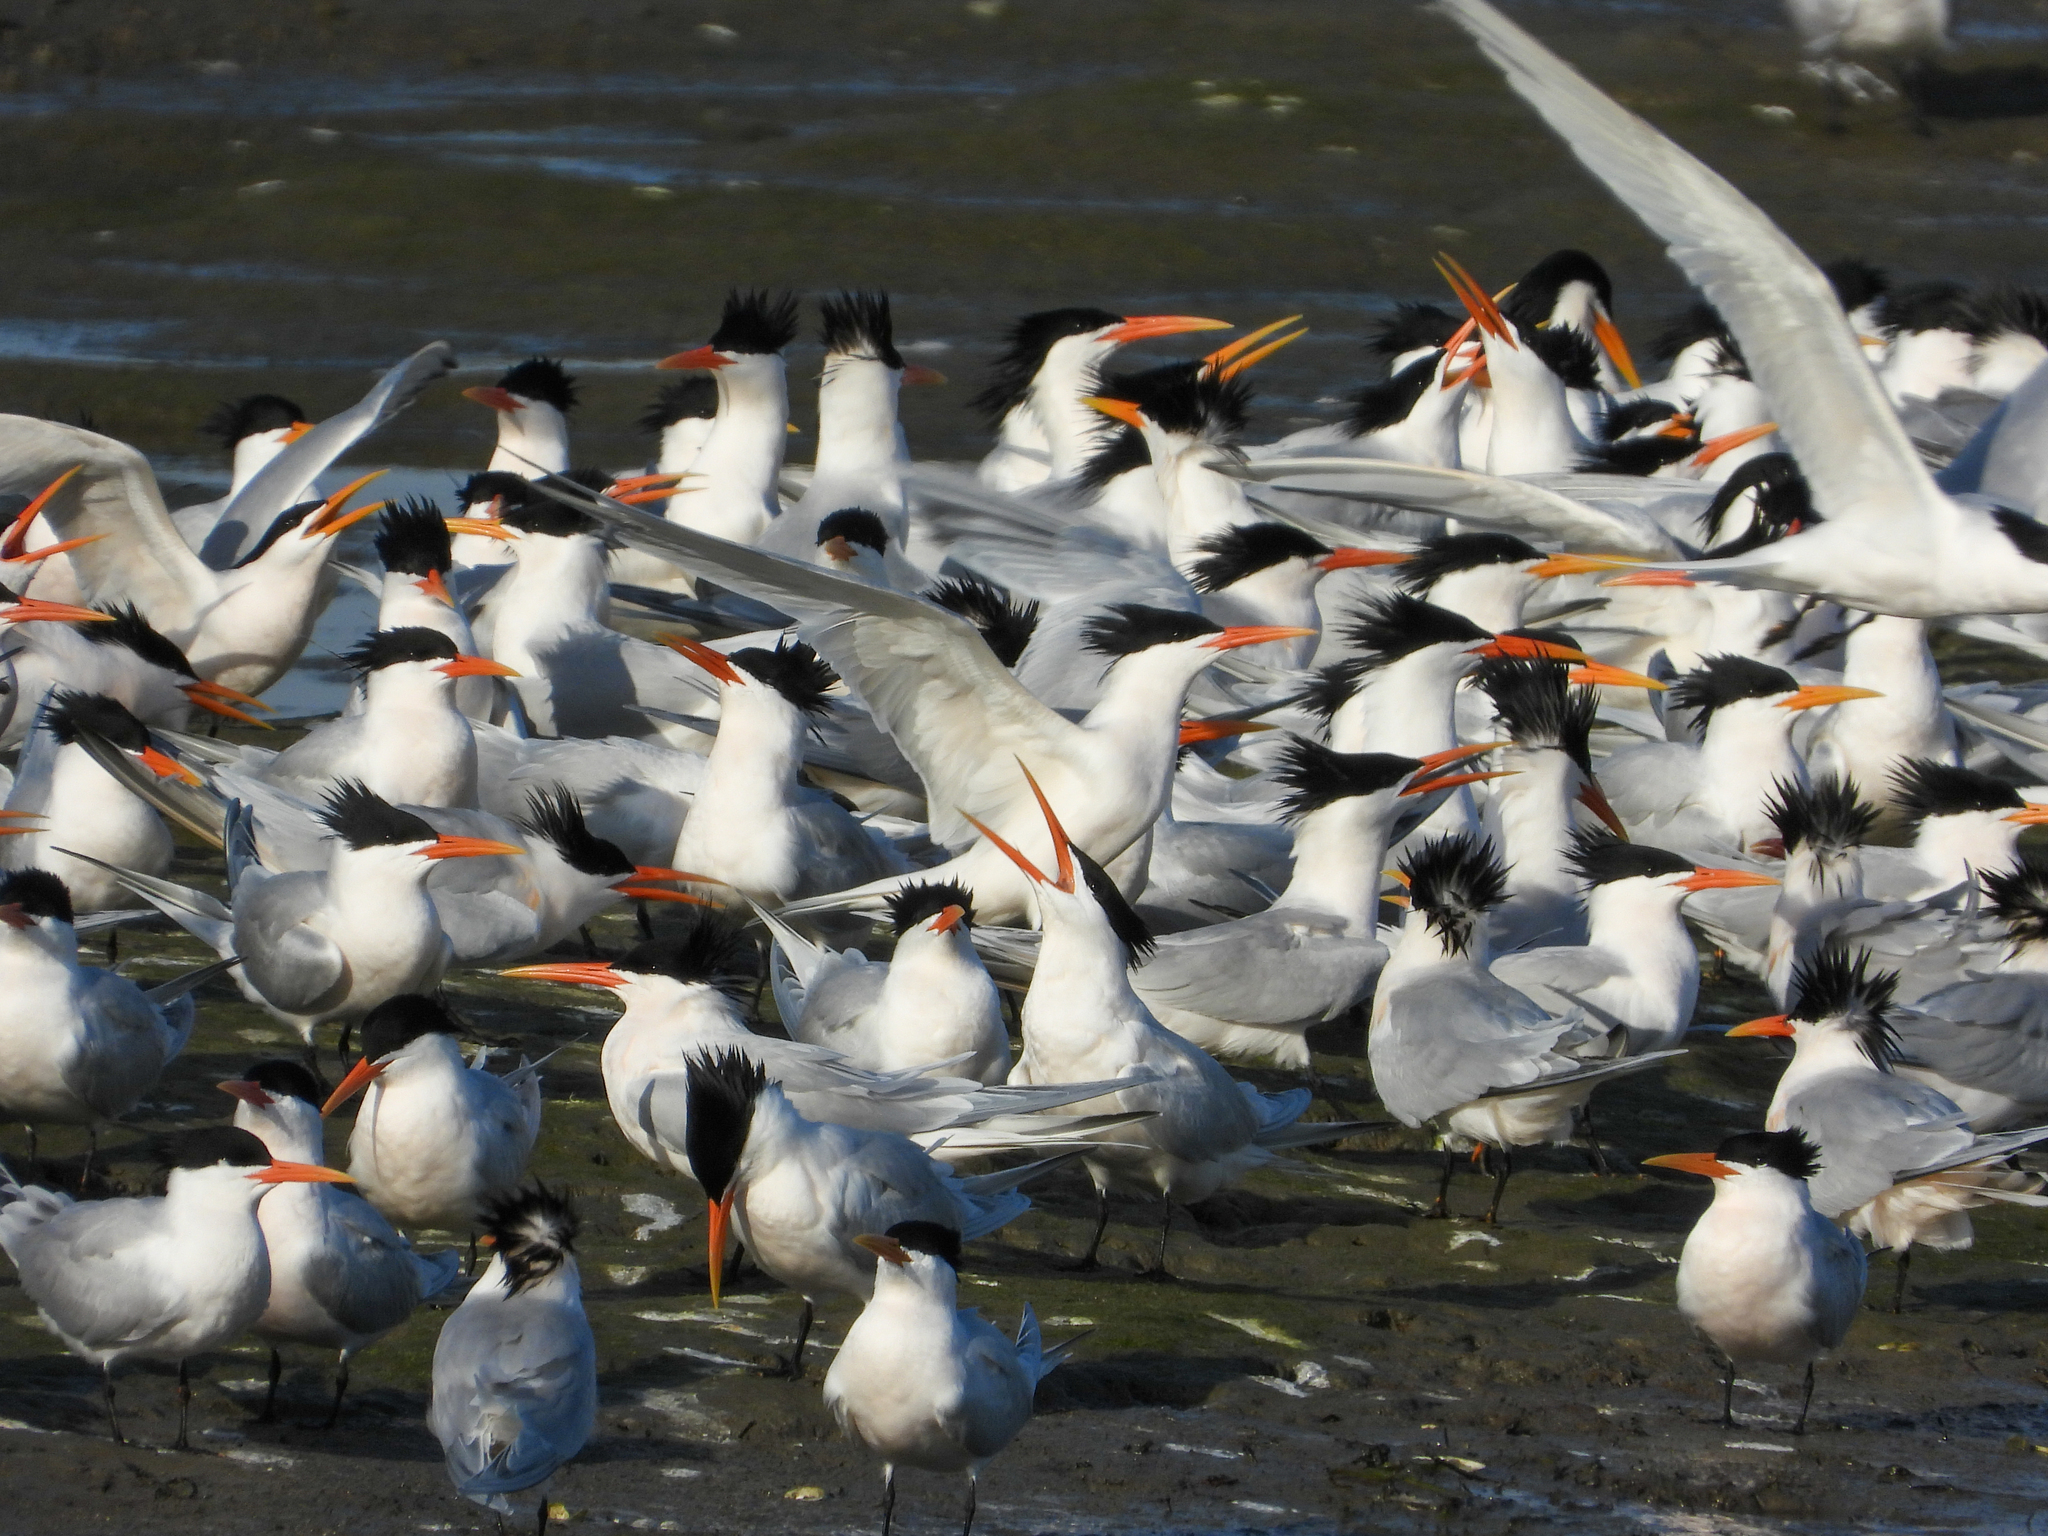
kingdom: Animalia
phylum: Chordata
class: Aves
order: Charadriiformes
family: Laridae
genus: Thalasseus
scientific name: Thalasseus elegans
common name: Elegant tern
